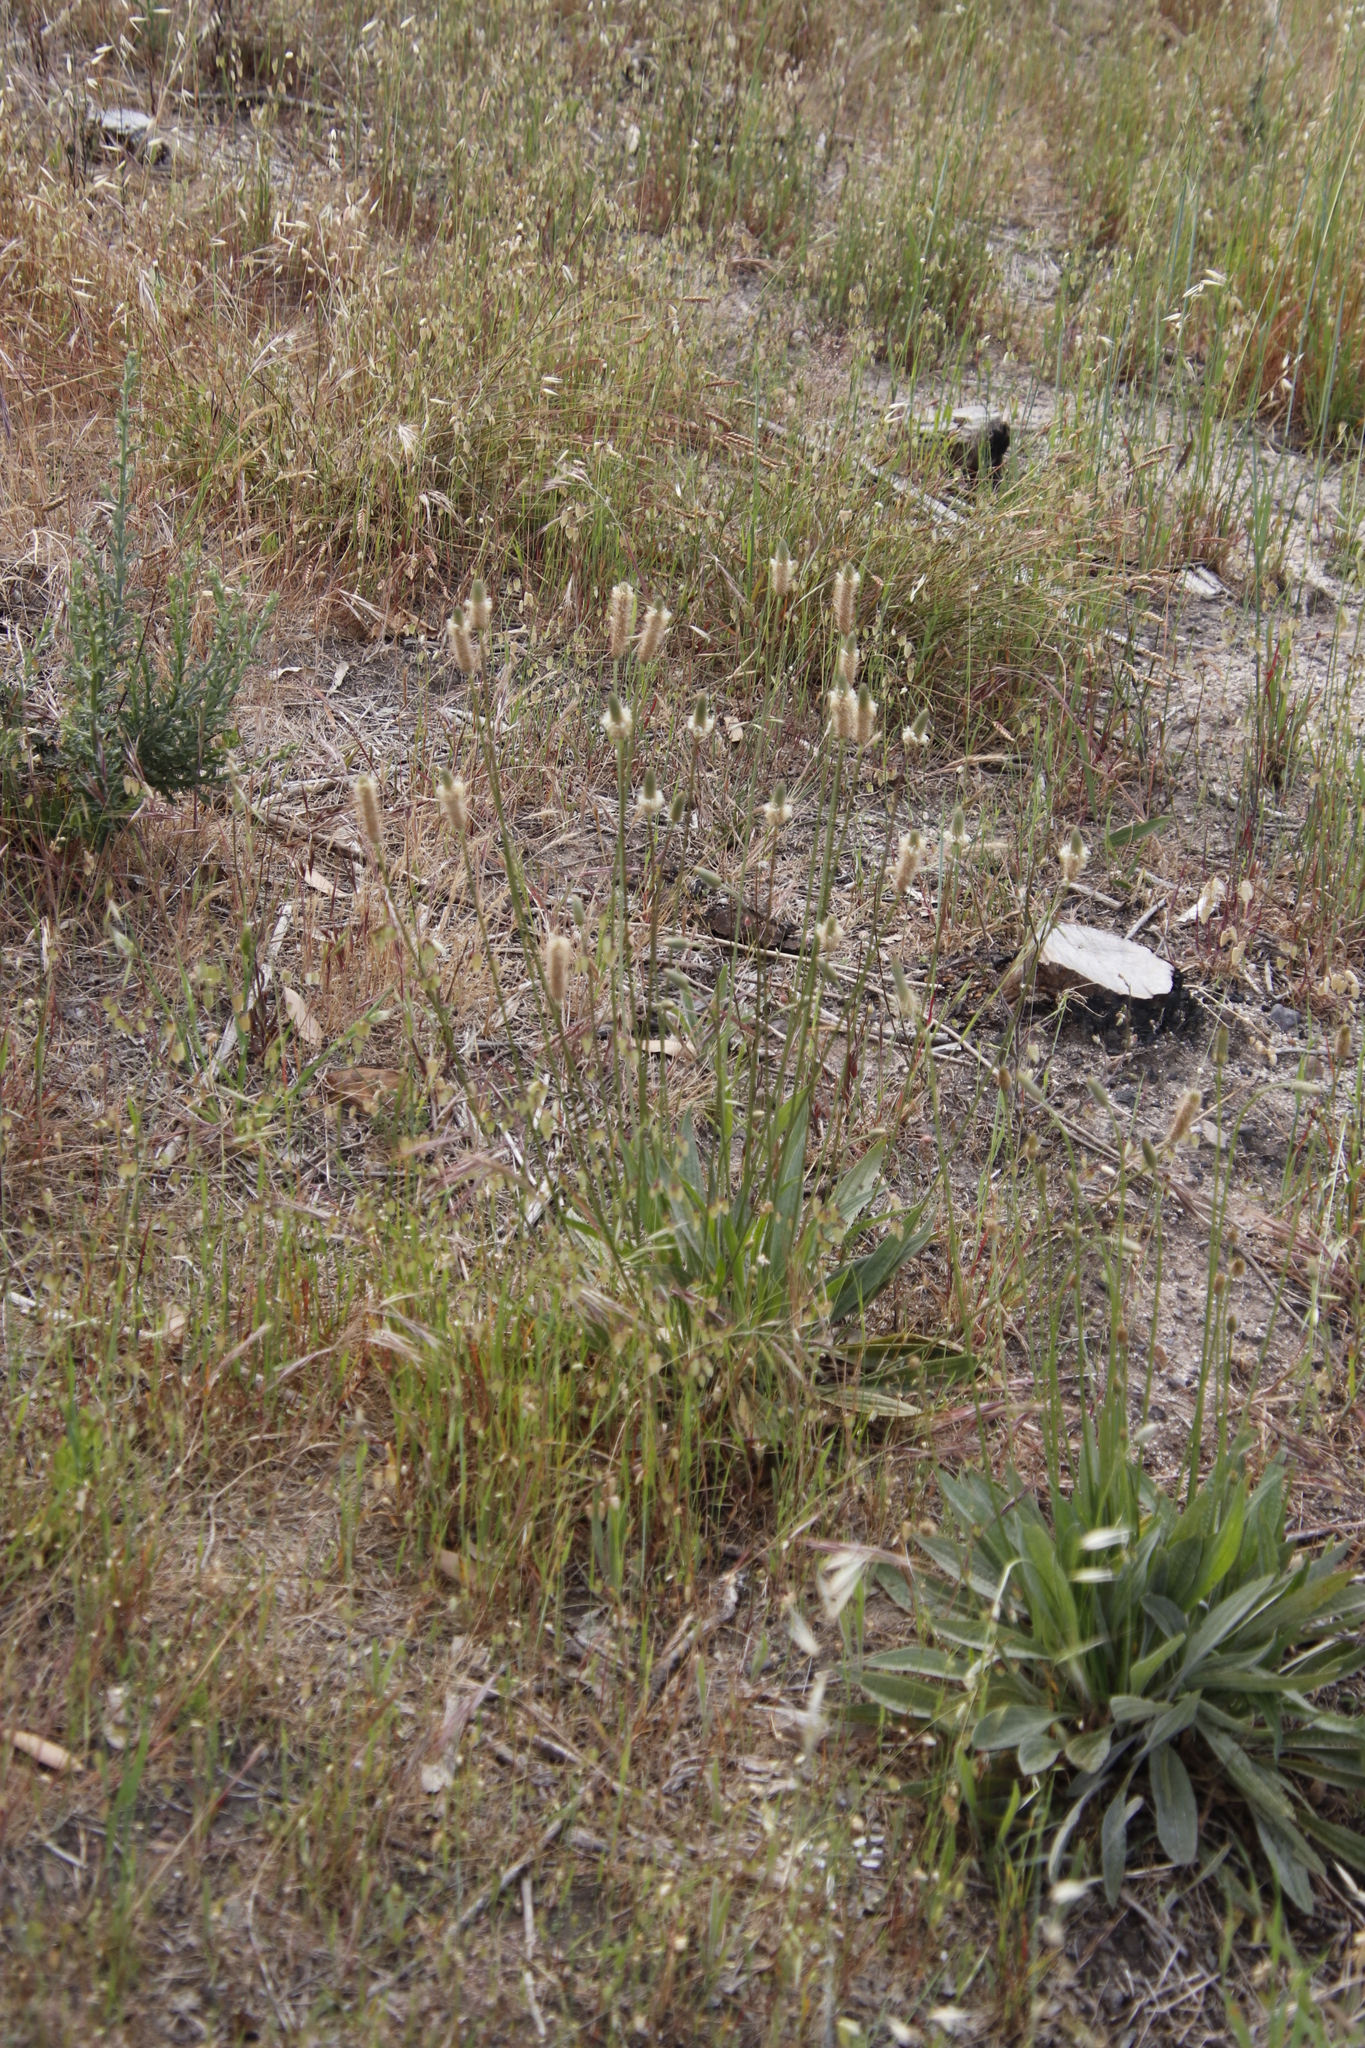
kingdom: Plantae
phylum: Tracheophyta
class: Magnoliopsida
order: Lamiales
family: Plantaginaceae
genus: Plantago
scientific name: Plantago lanceolata
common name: Ribwort plantain
